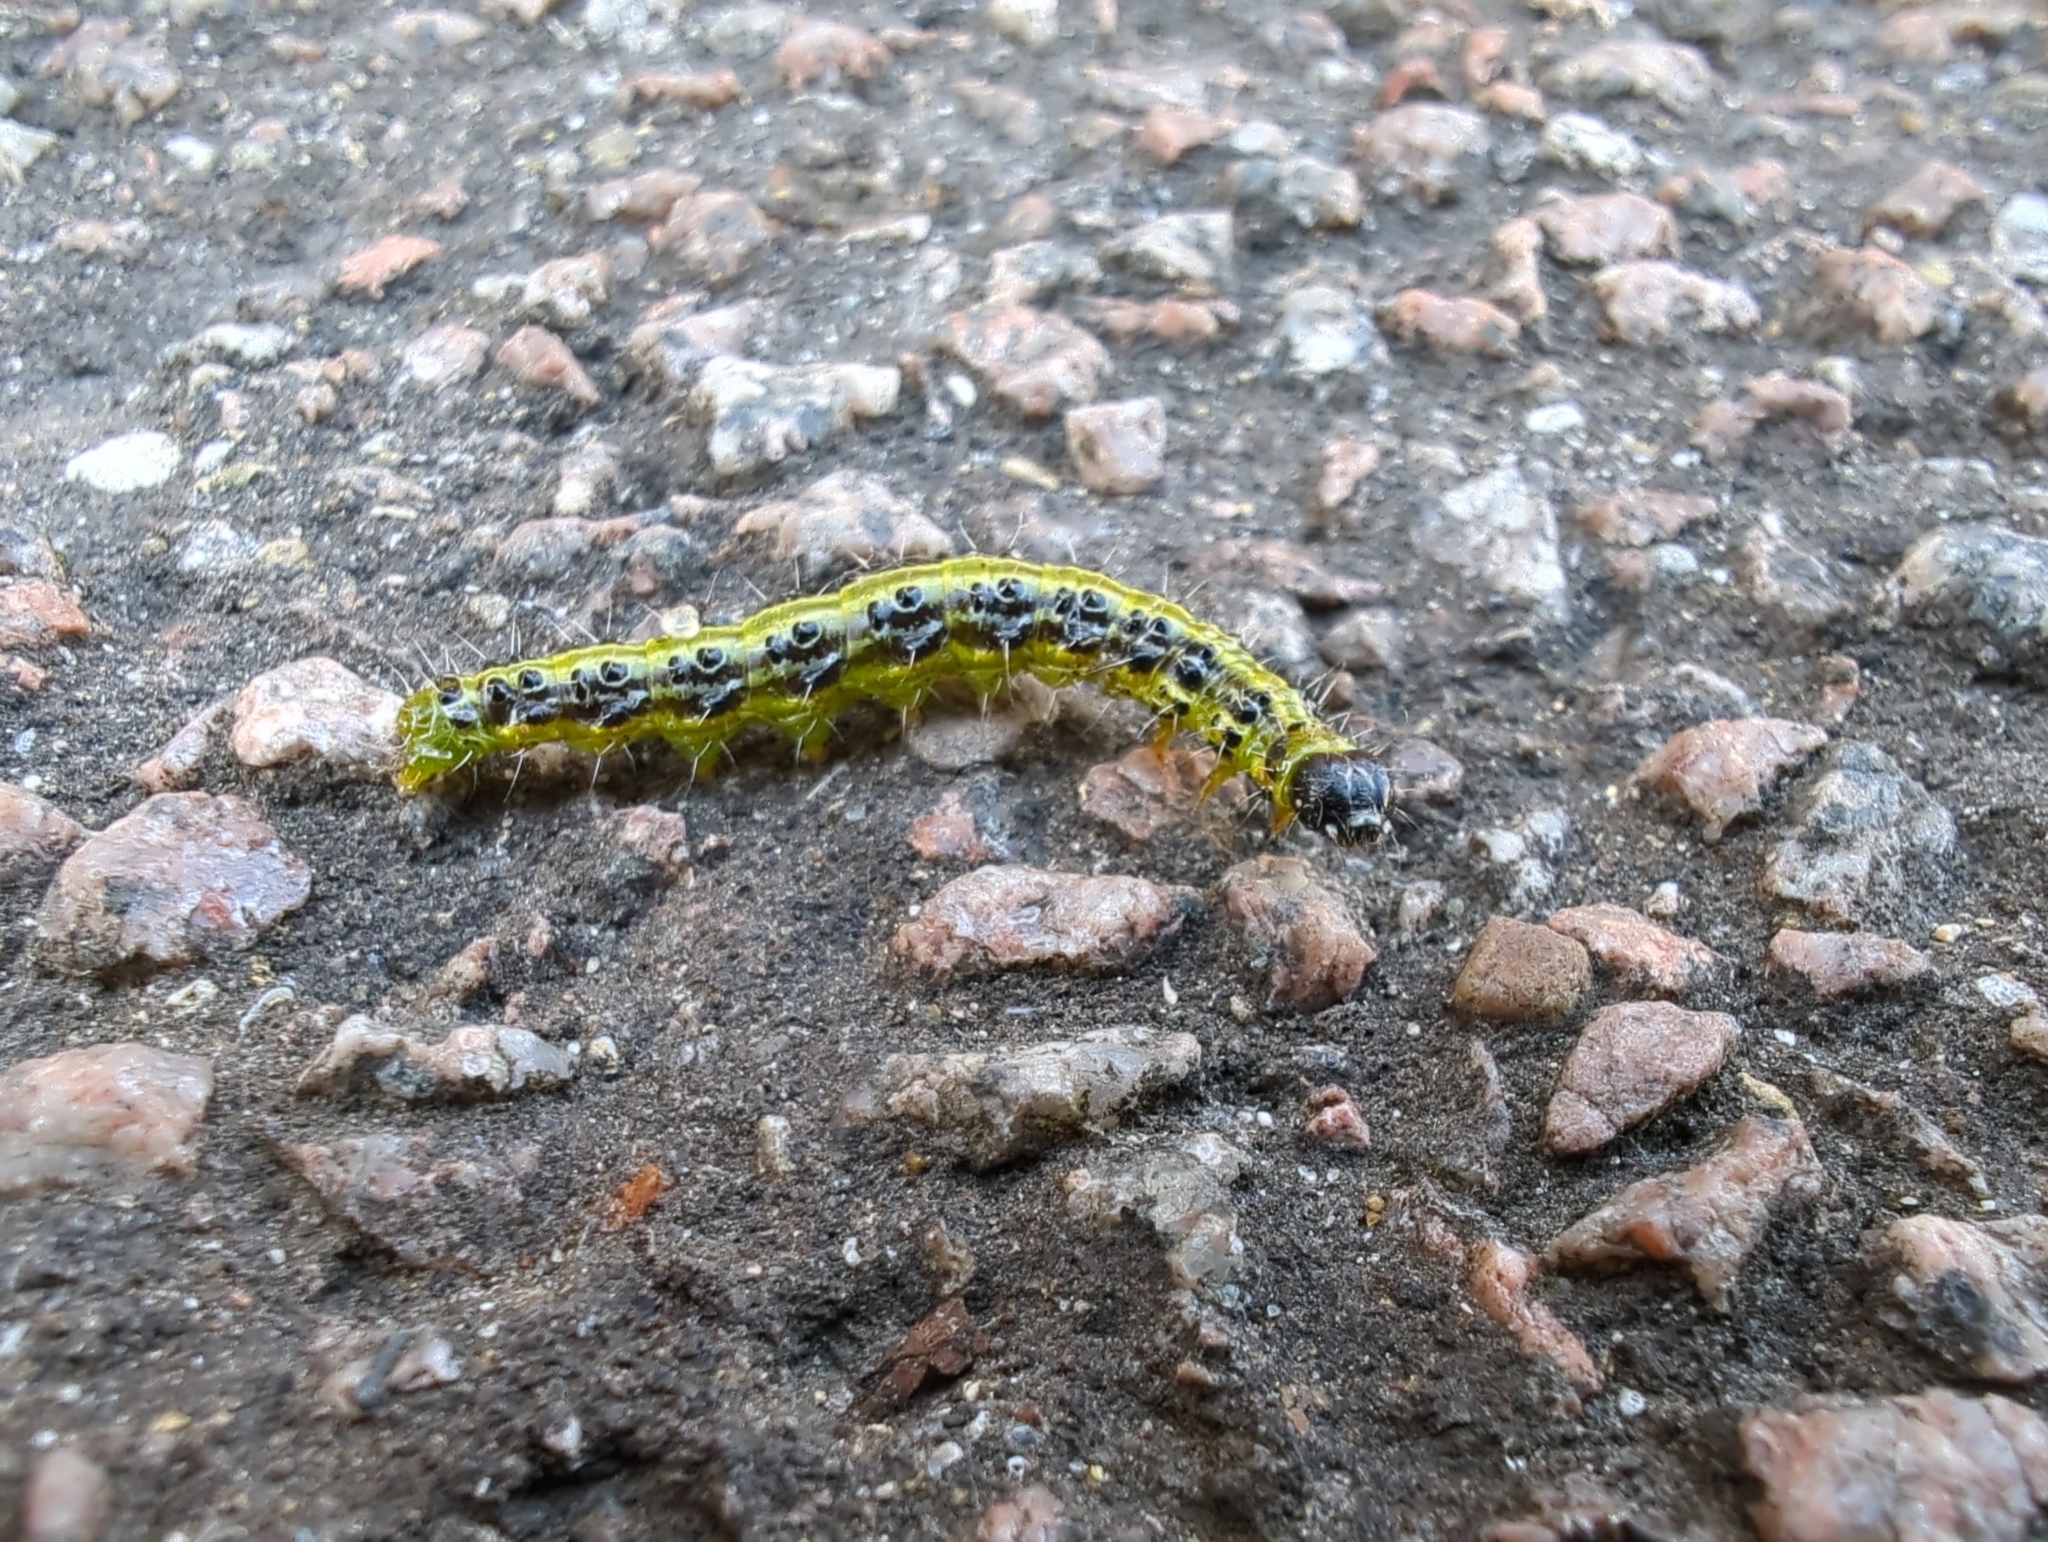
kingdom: Animalia
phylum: Arthropoda
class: Insecta
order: Lepidoptera
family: Crambidae
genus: Cydalima
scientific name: Cydalima perspectalis
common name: Box tree moth
